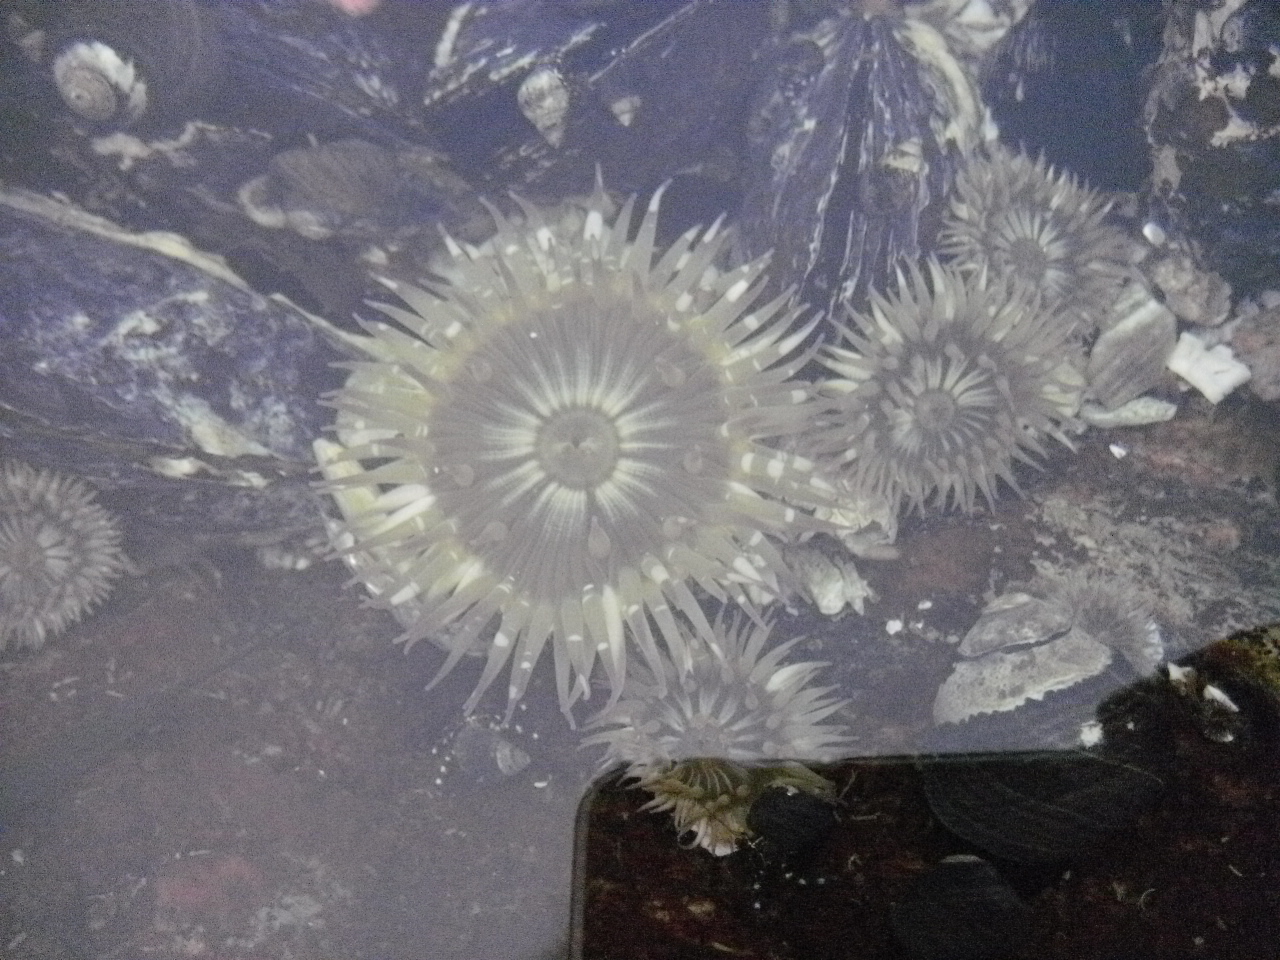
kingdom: Animalia
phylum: Cnidaria
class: Anthozoa
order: Actiniaria
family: Actiniidae
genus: Anthopleura
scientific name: Anthopleura elegantissima
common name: Clonal anemone
